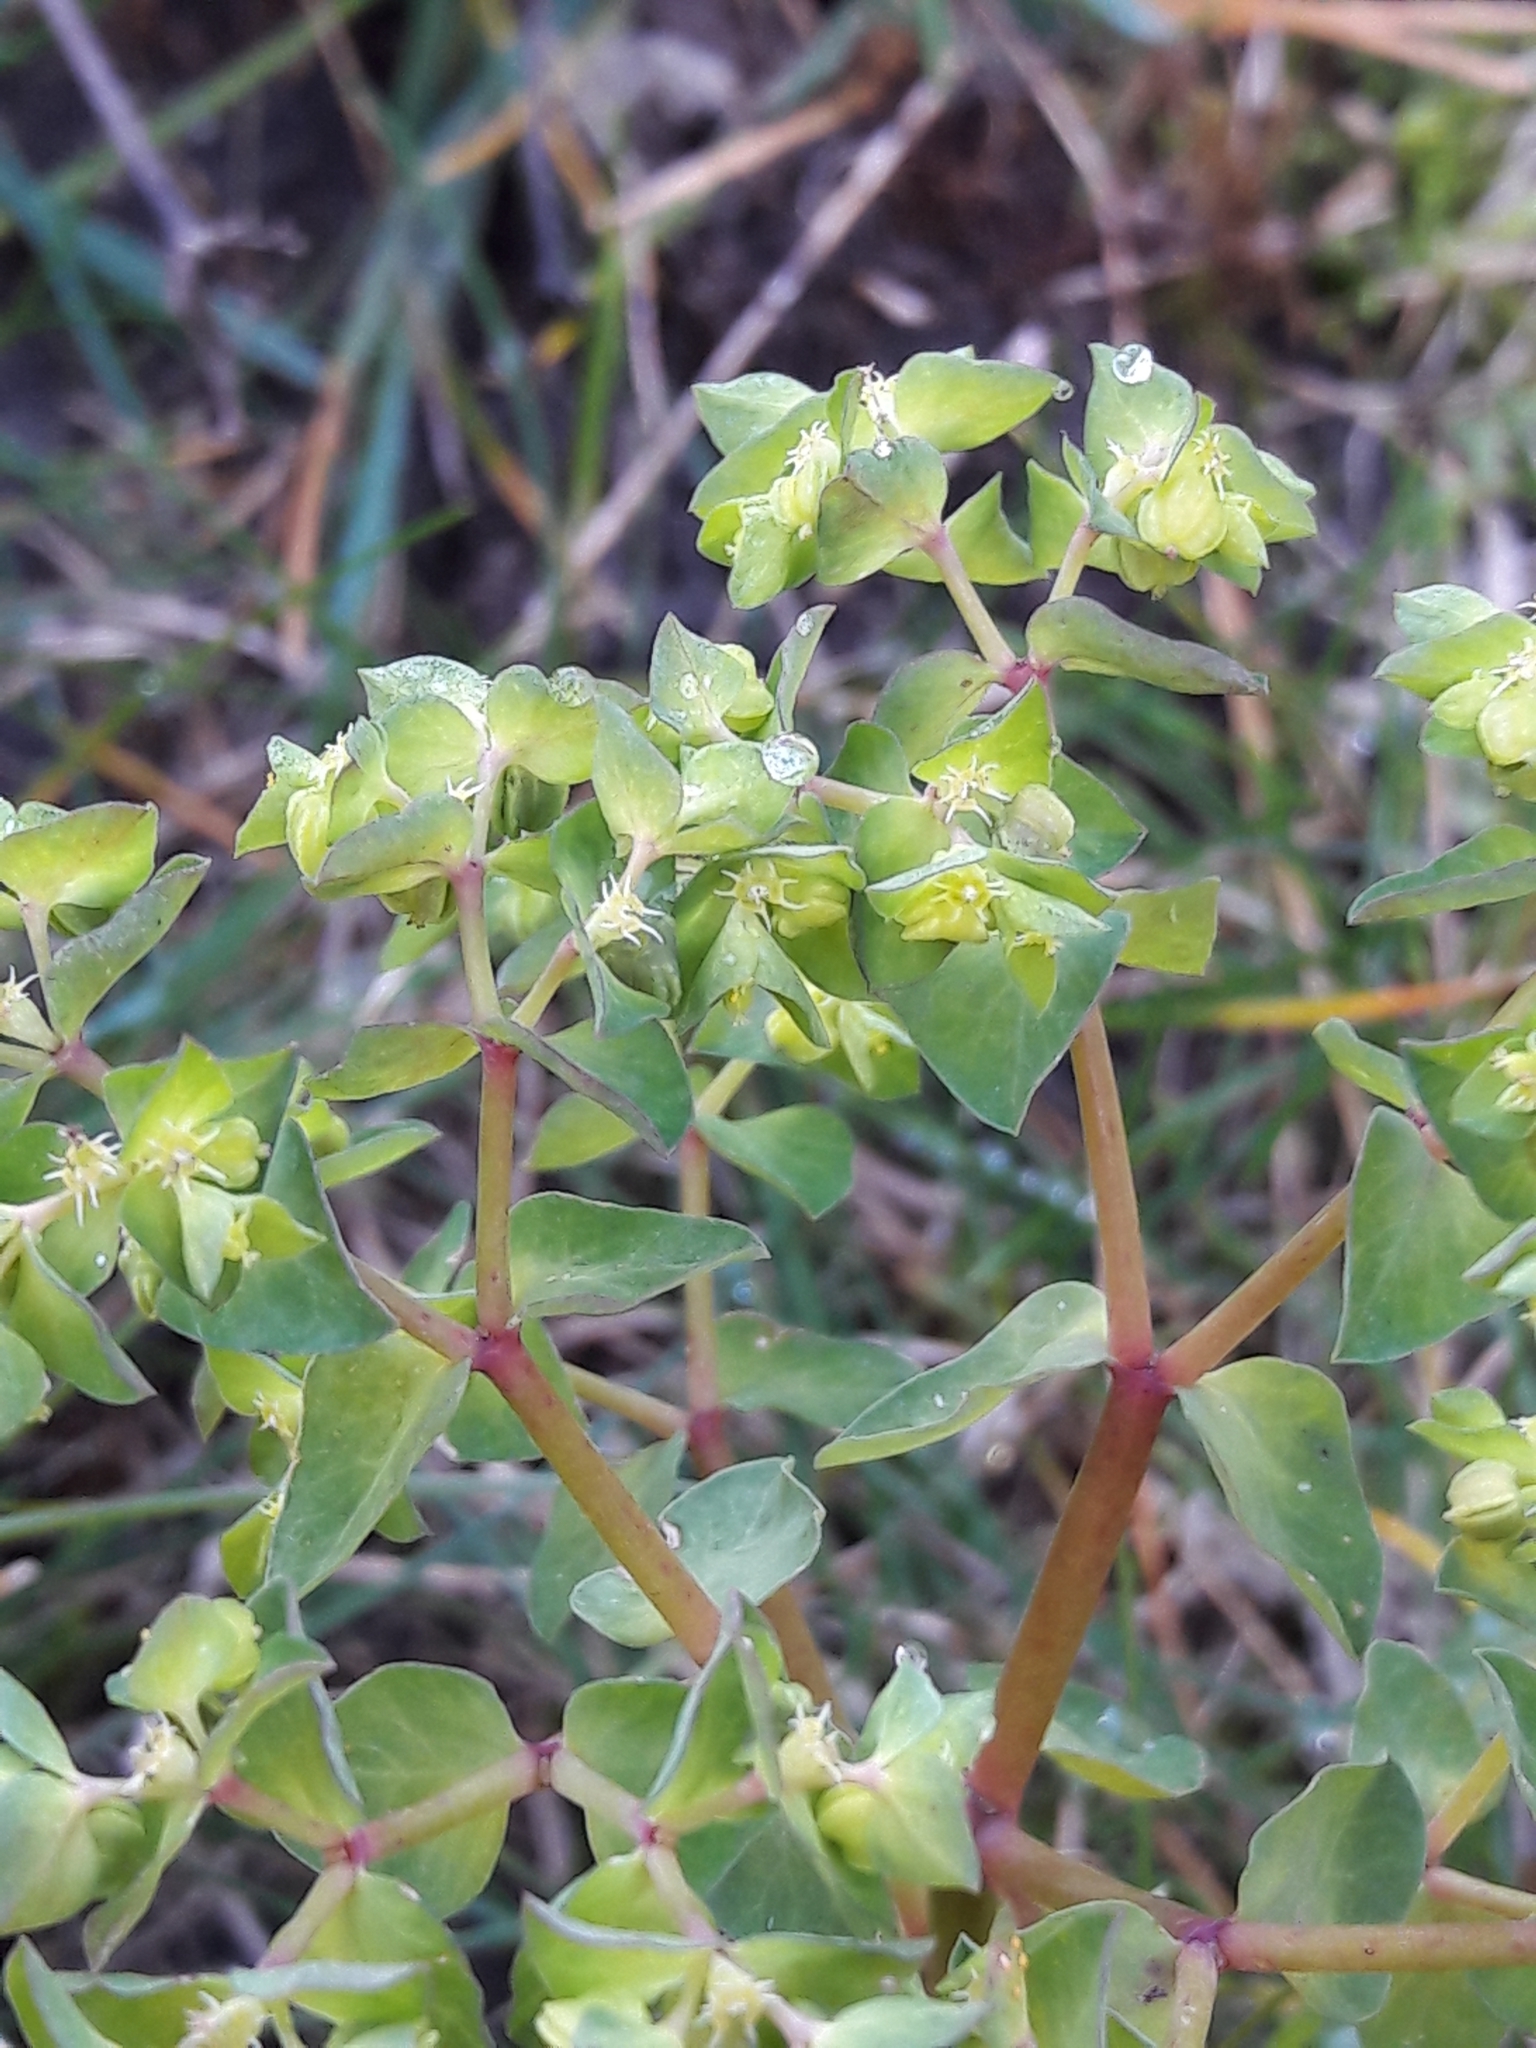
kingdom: Plantae
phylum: Tracheophyta
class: Magnoliopsida
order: Malpighiales
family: Euphorbiaceae
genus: Euphorbia
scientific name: Euphorbia peplus
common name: Petty spurge
